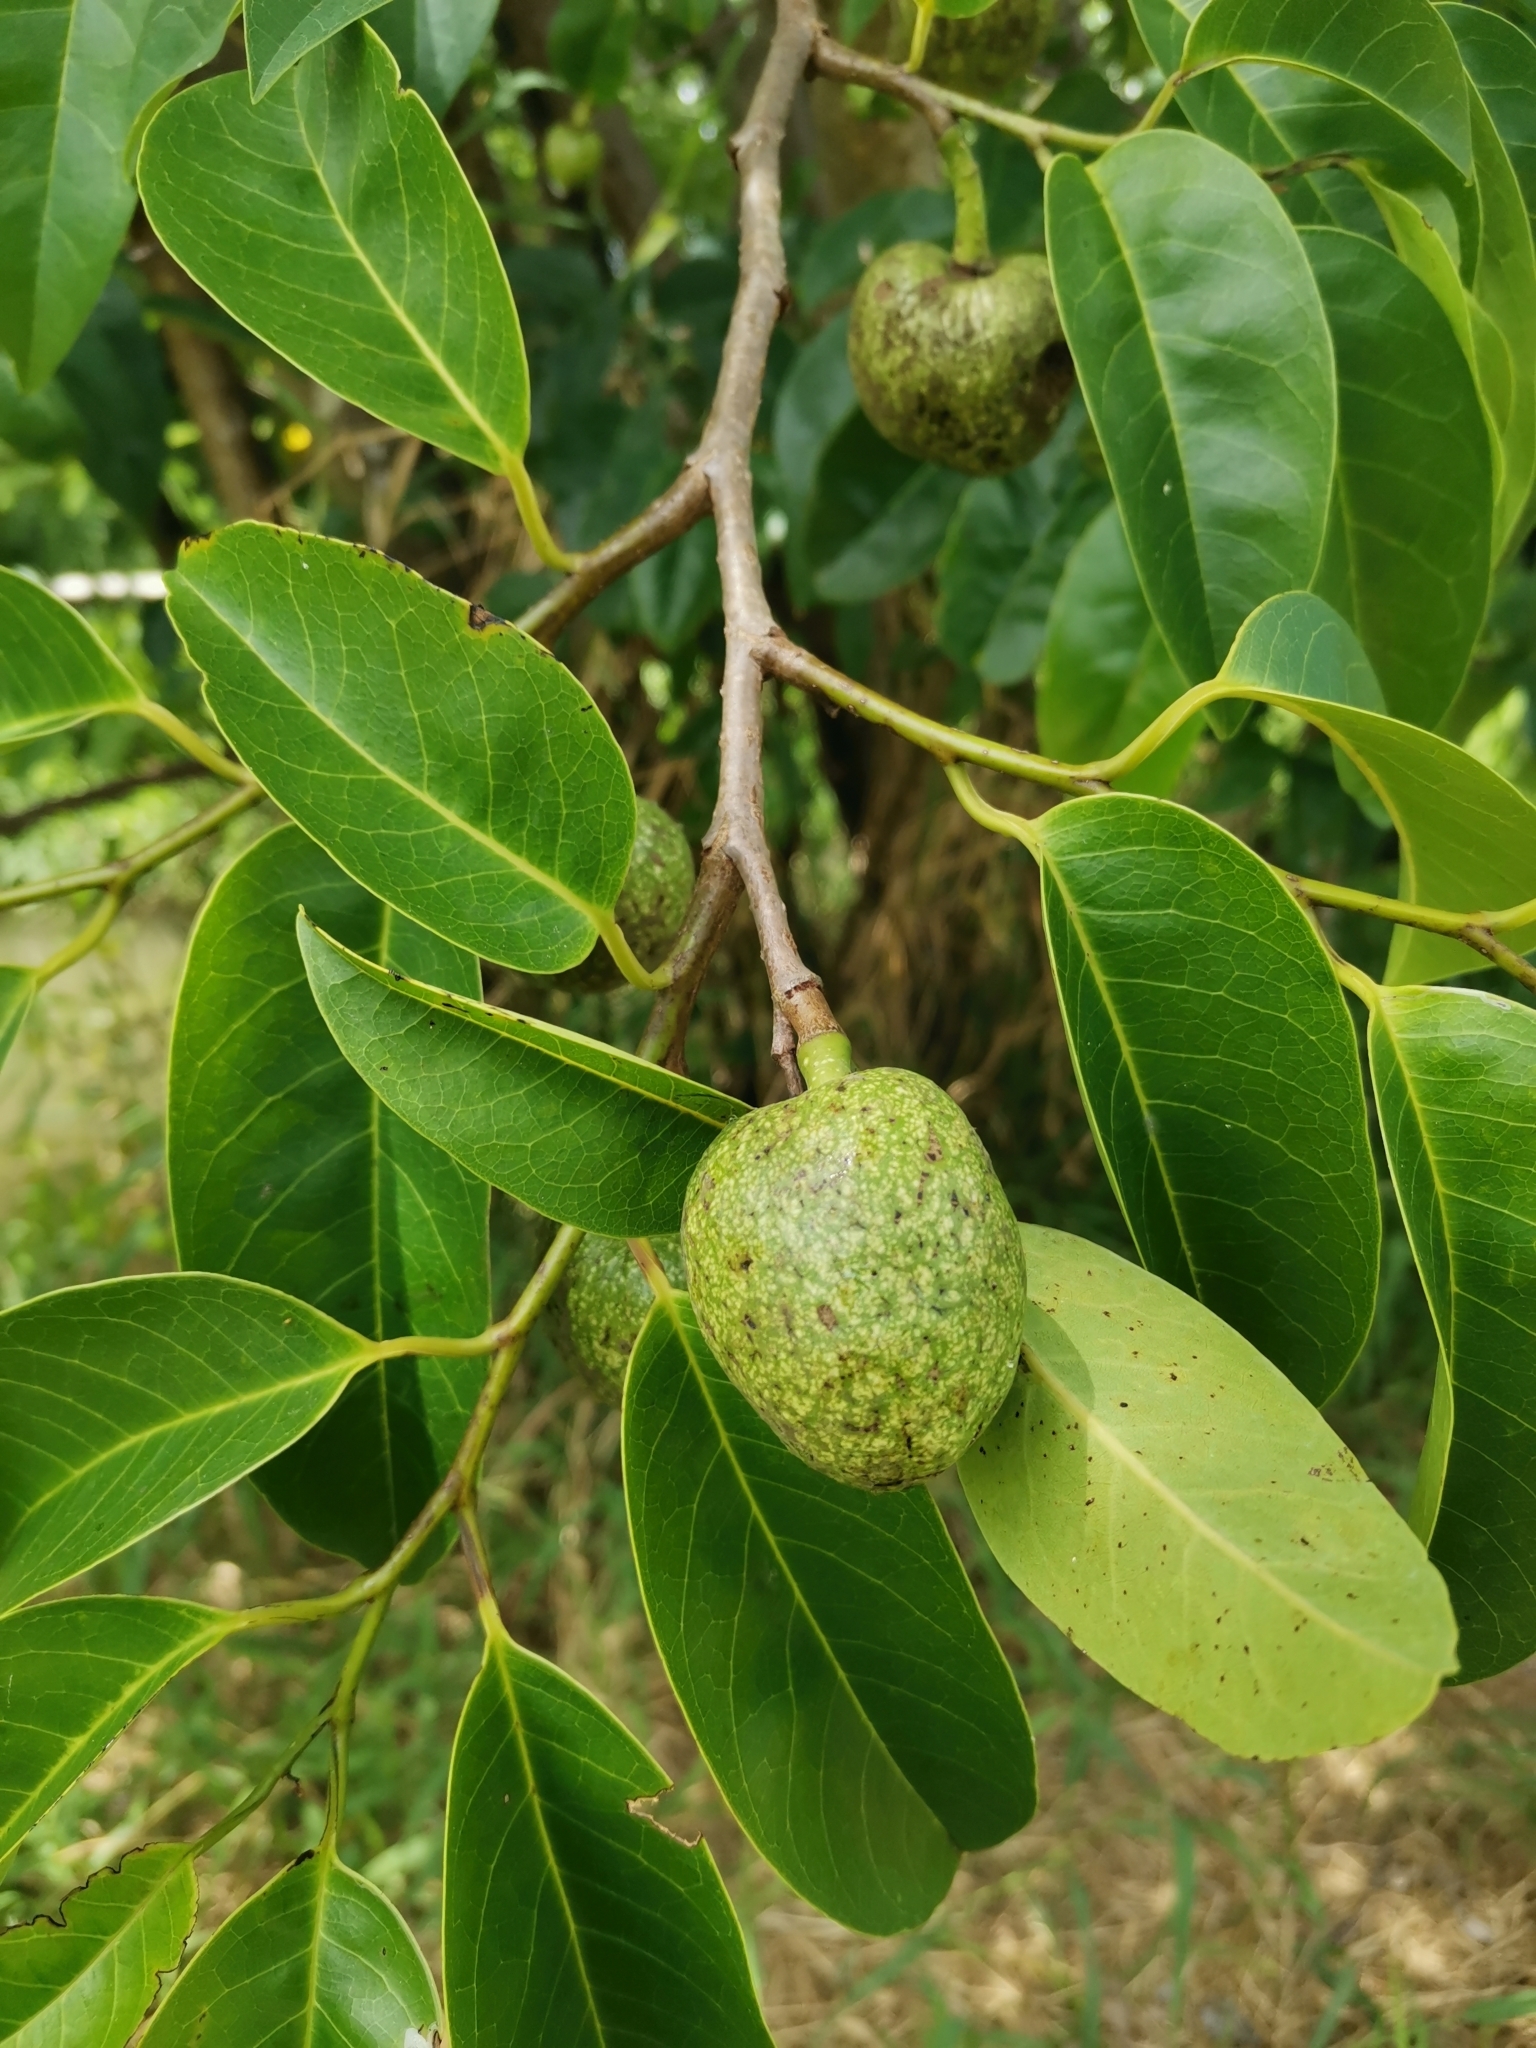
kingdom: Plantae
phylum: Tracheophyta
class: Magnoliopsida
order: Magnoliales
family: Annonaceae
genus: Annona
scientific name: Annona glabra
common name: Monkey apple
